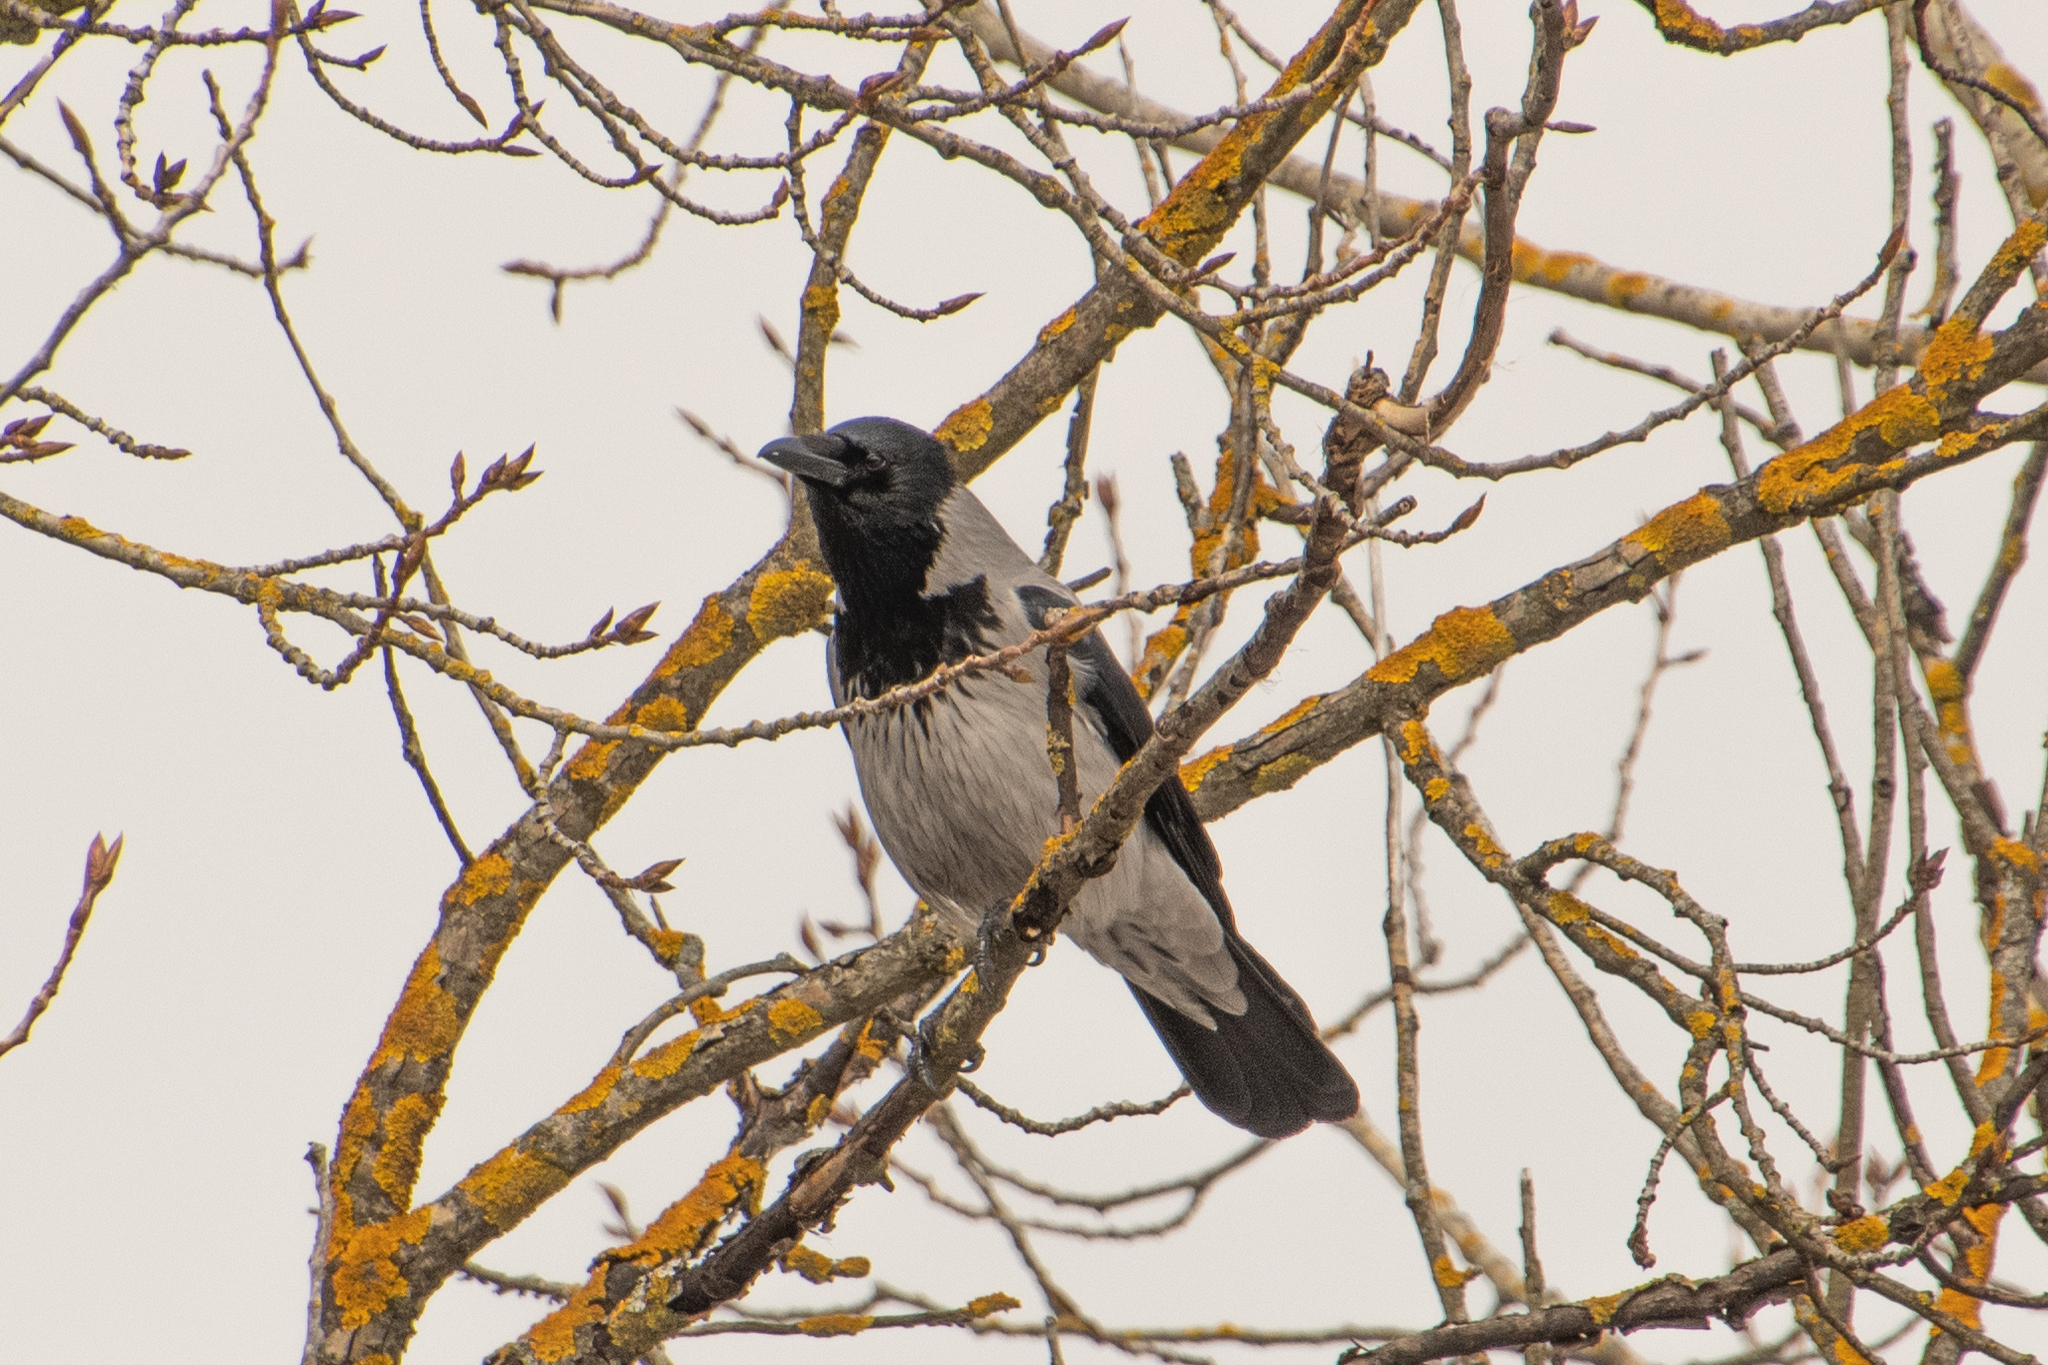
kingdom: Animalia
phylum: Chordata
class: Aves
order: Passeriformes
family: Corvidae
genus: Corvus
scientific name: Corvus cornix
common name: Hooded crow
